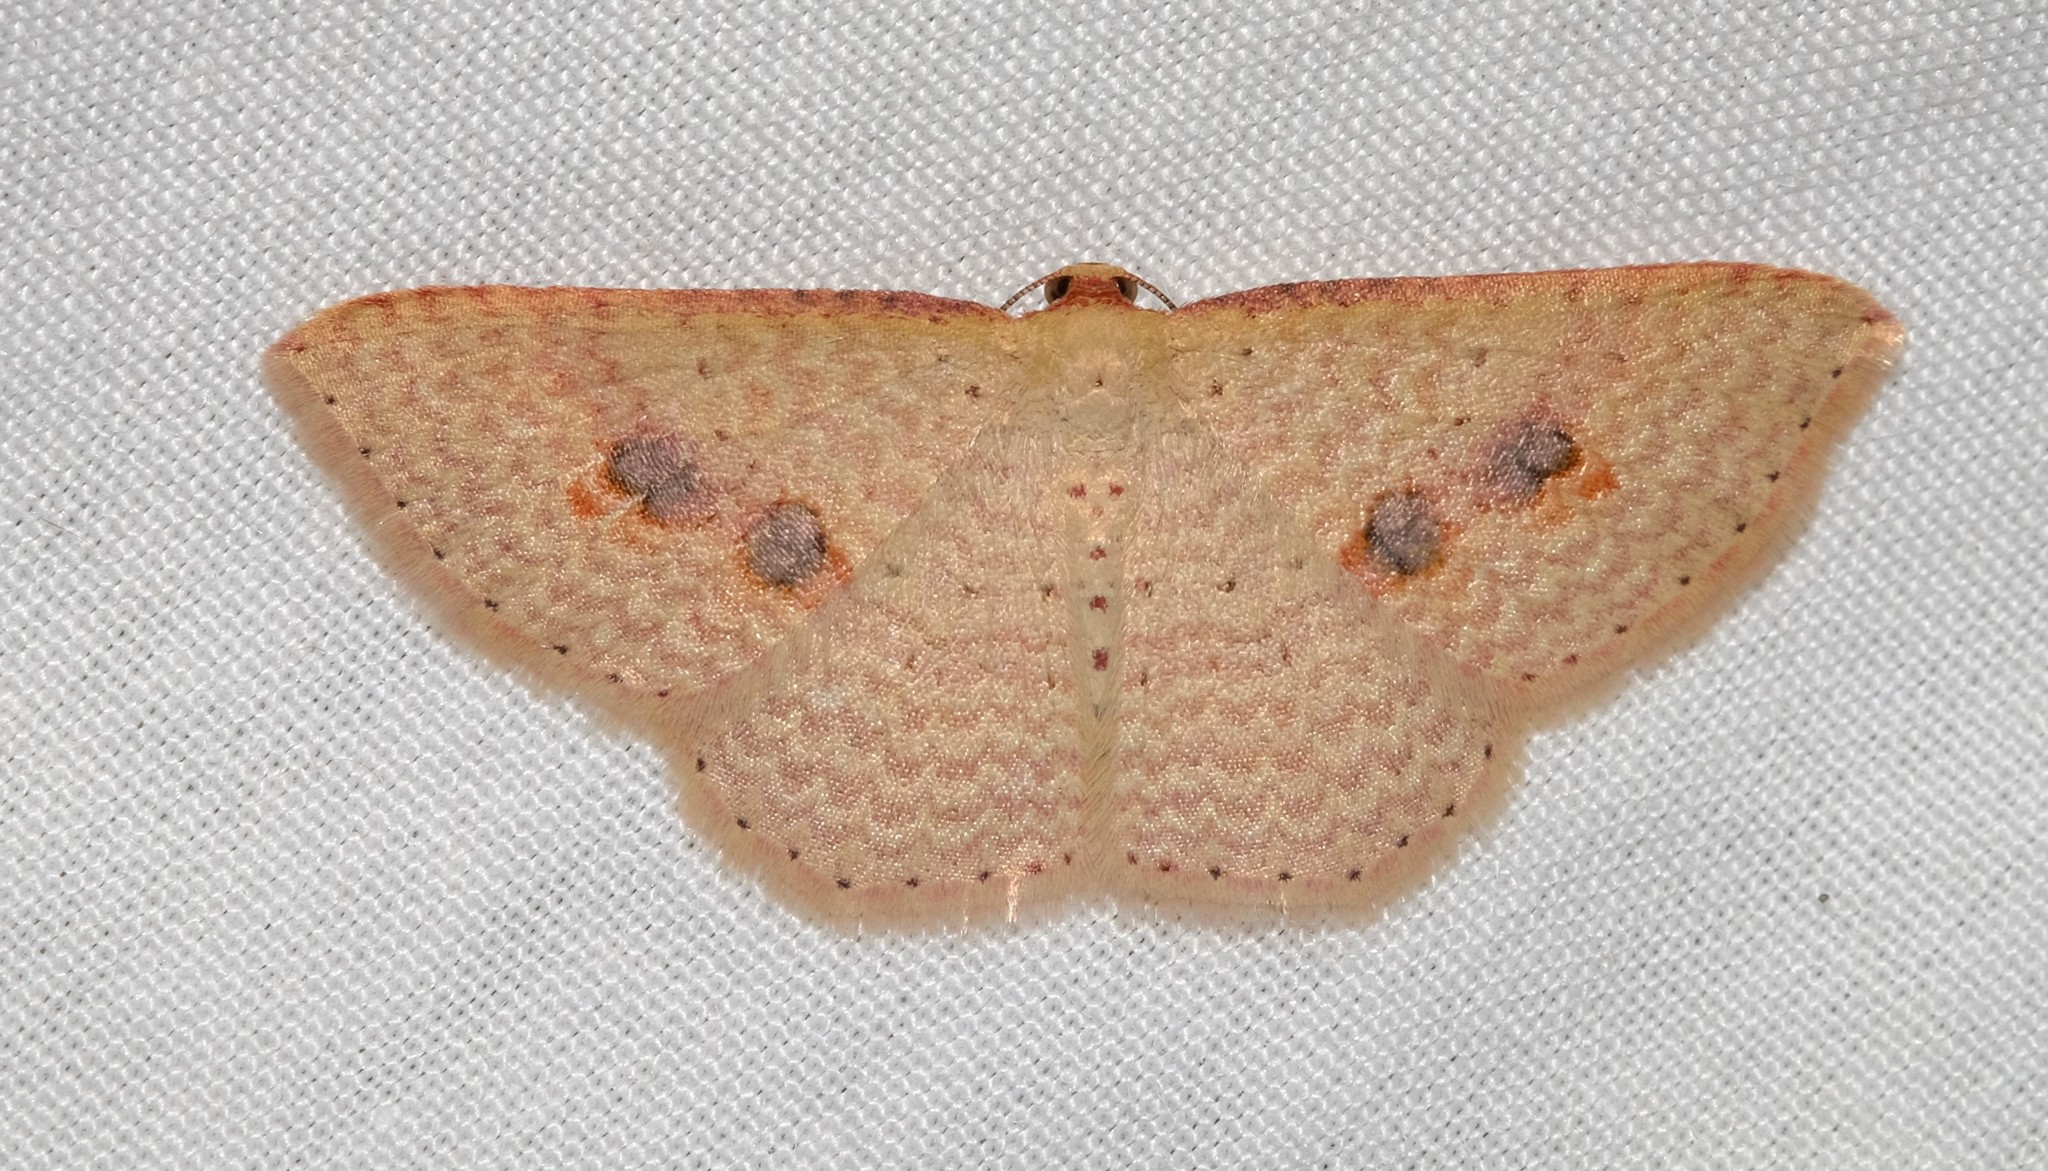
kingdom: Animalia
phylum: Arthropoda
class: Insecta
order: Lepidoptera
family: Geometridae
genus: Epicyme
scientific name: Epicyme rubropunctaria
